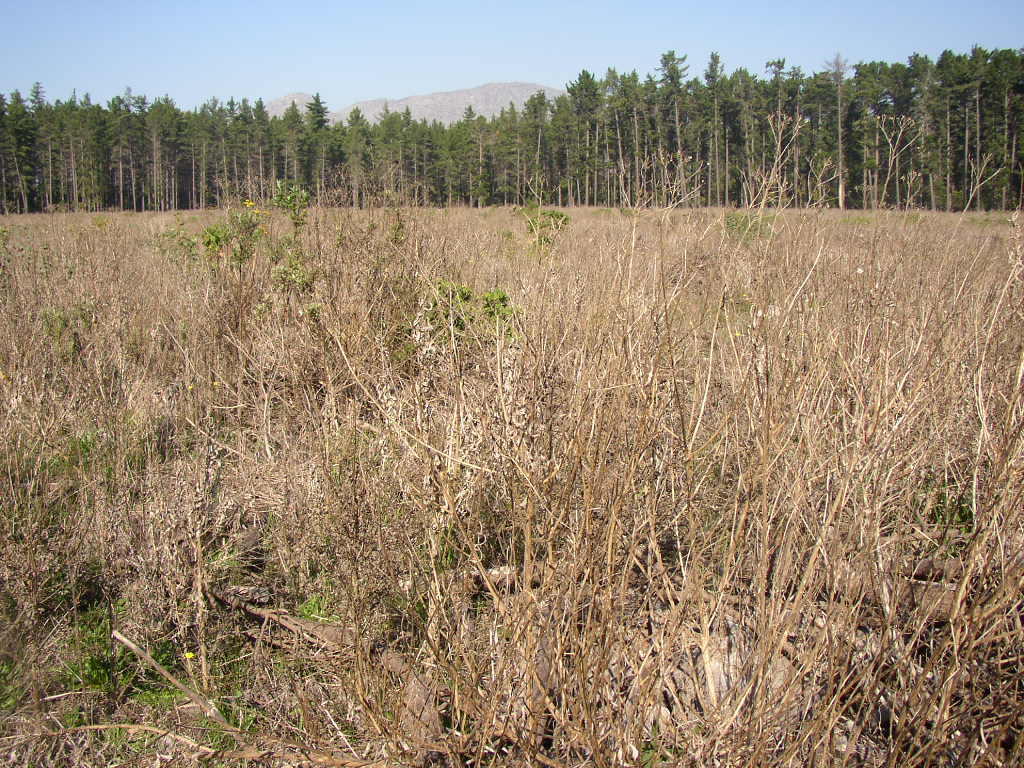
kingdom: Plantae
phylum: Tracheophyta
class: Magnoliopsida
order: Asterales
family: Asteraceae
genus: Senecio
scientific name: Senecio pterophorus
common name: Shoddy ragwort
